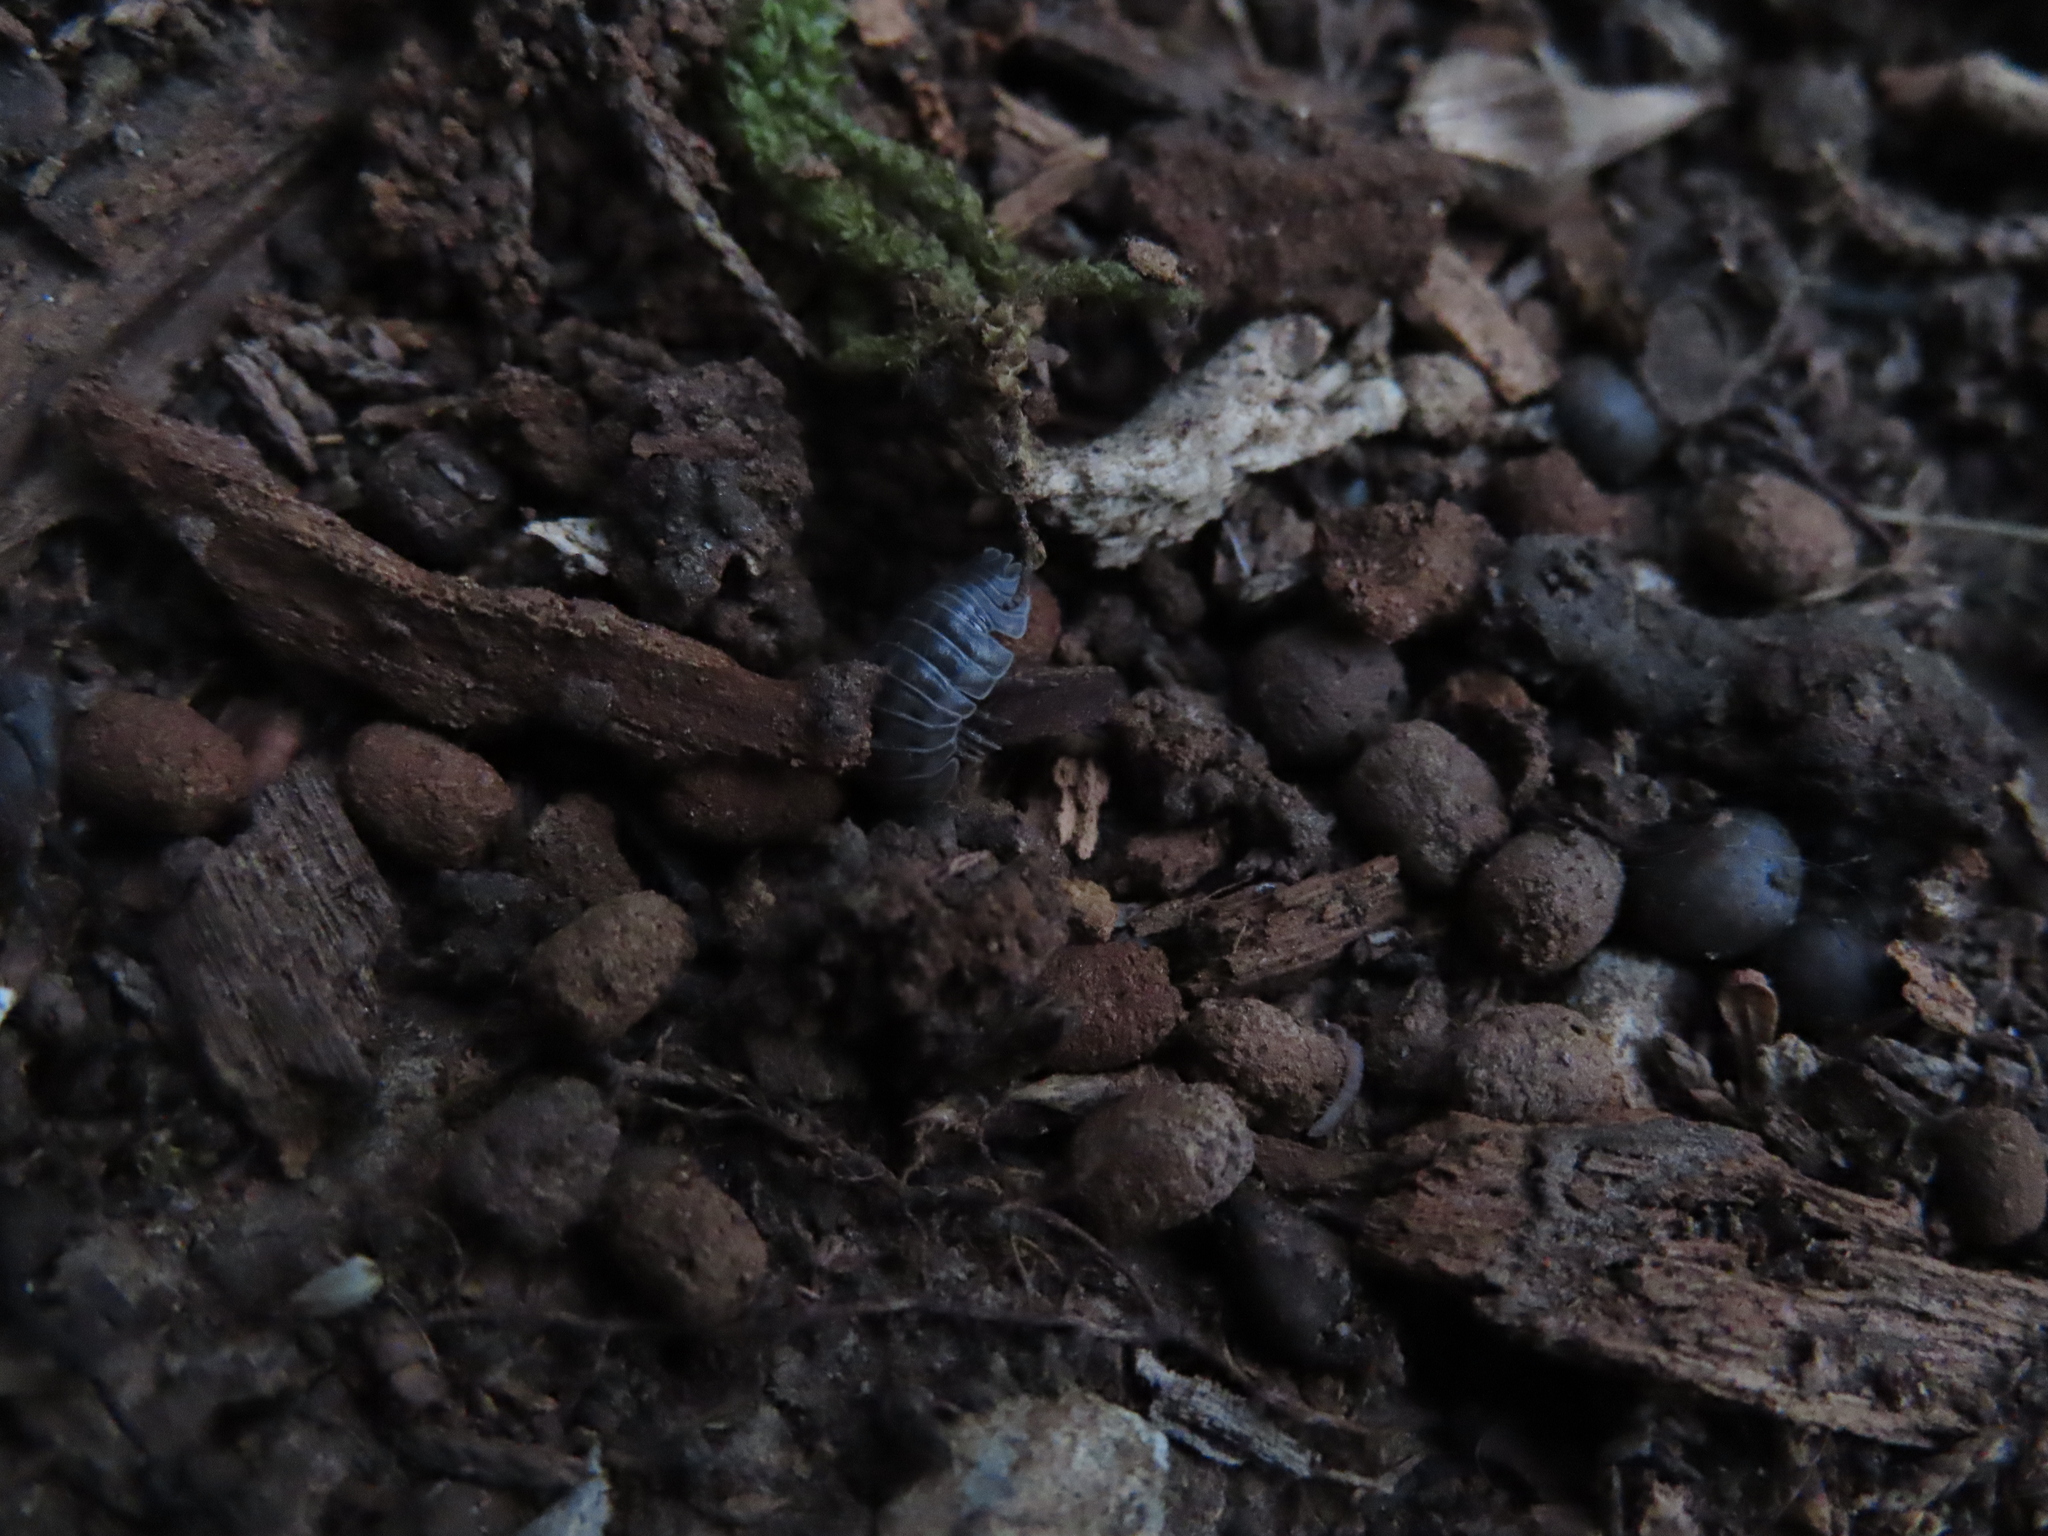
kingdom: Animalia
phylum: Arthropoda
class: Malacostraca
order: Isopoda
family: Armadillidiidae
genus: Armadillidium
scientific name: Armadillidium nasatum
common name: Isopod
